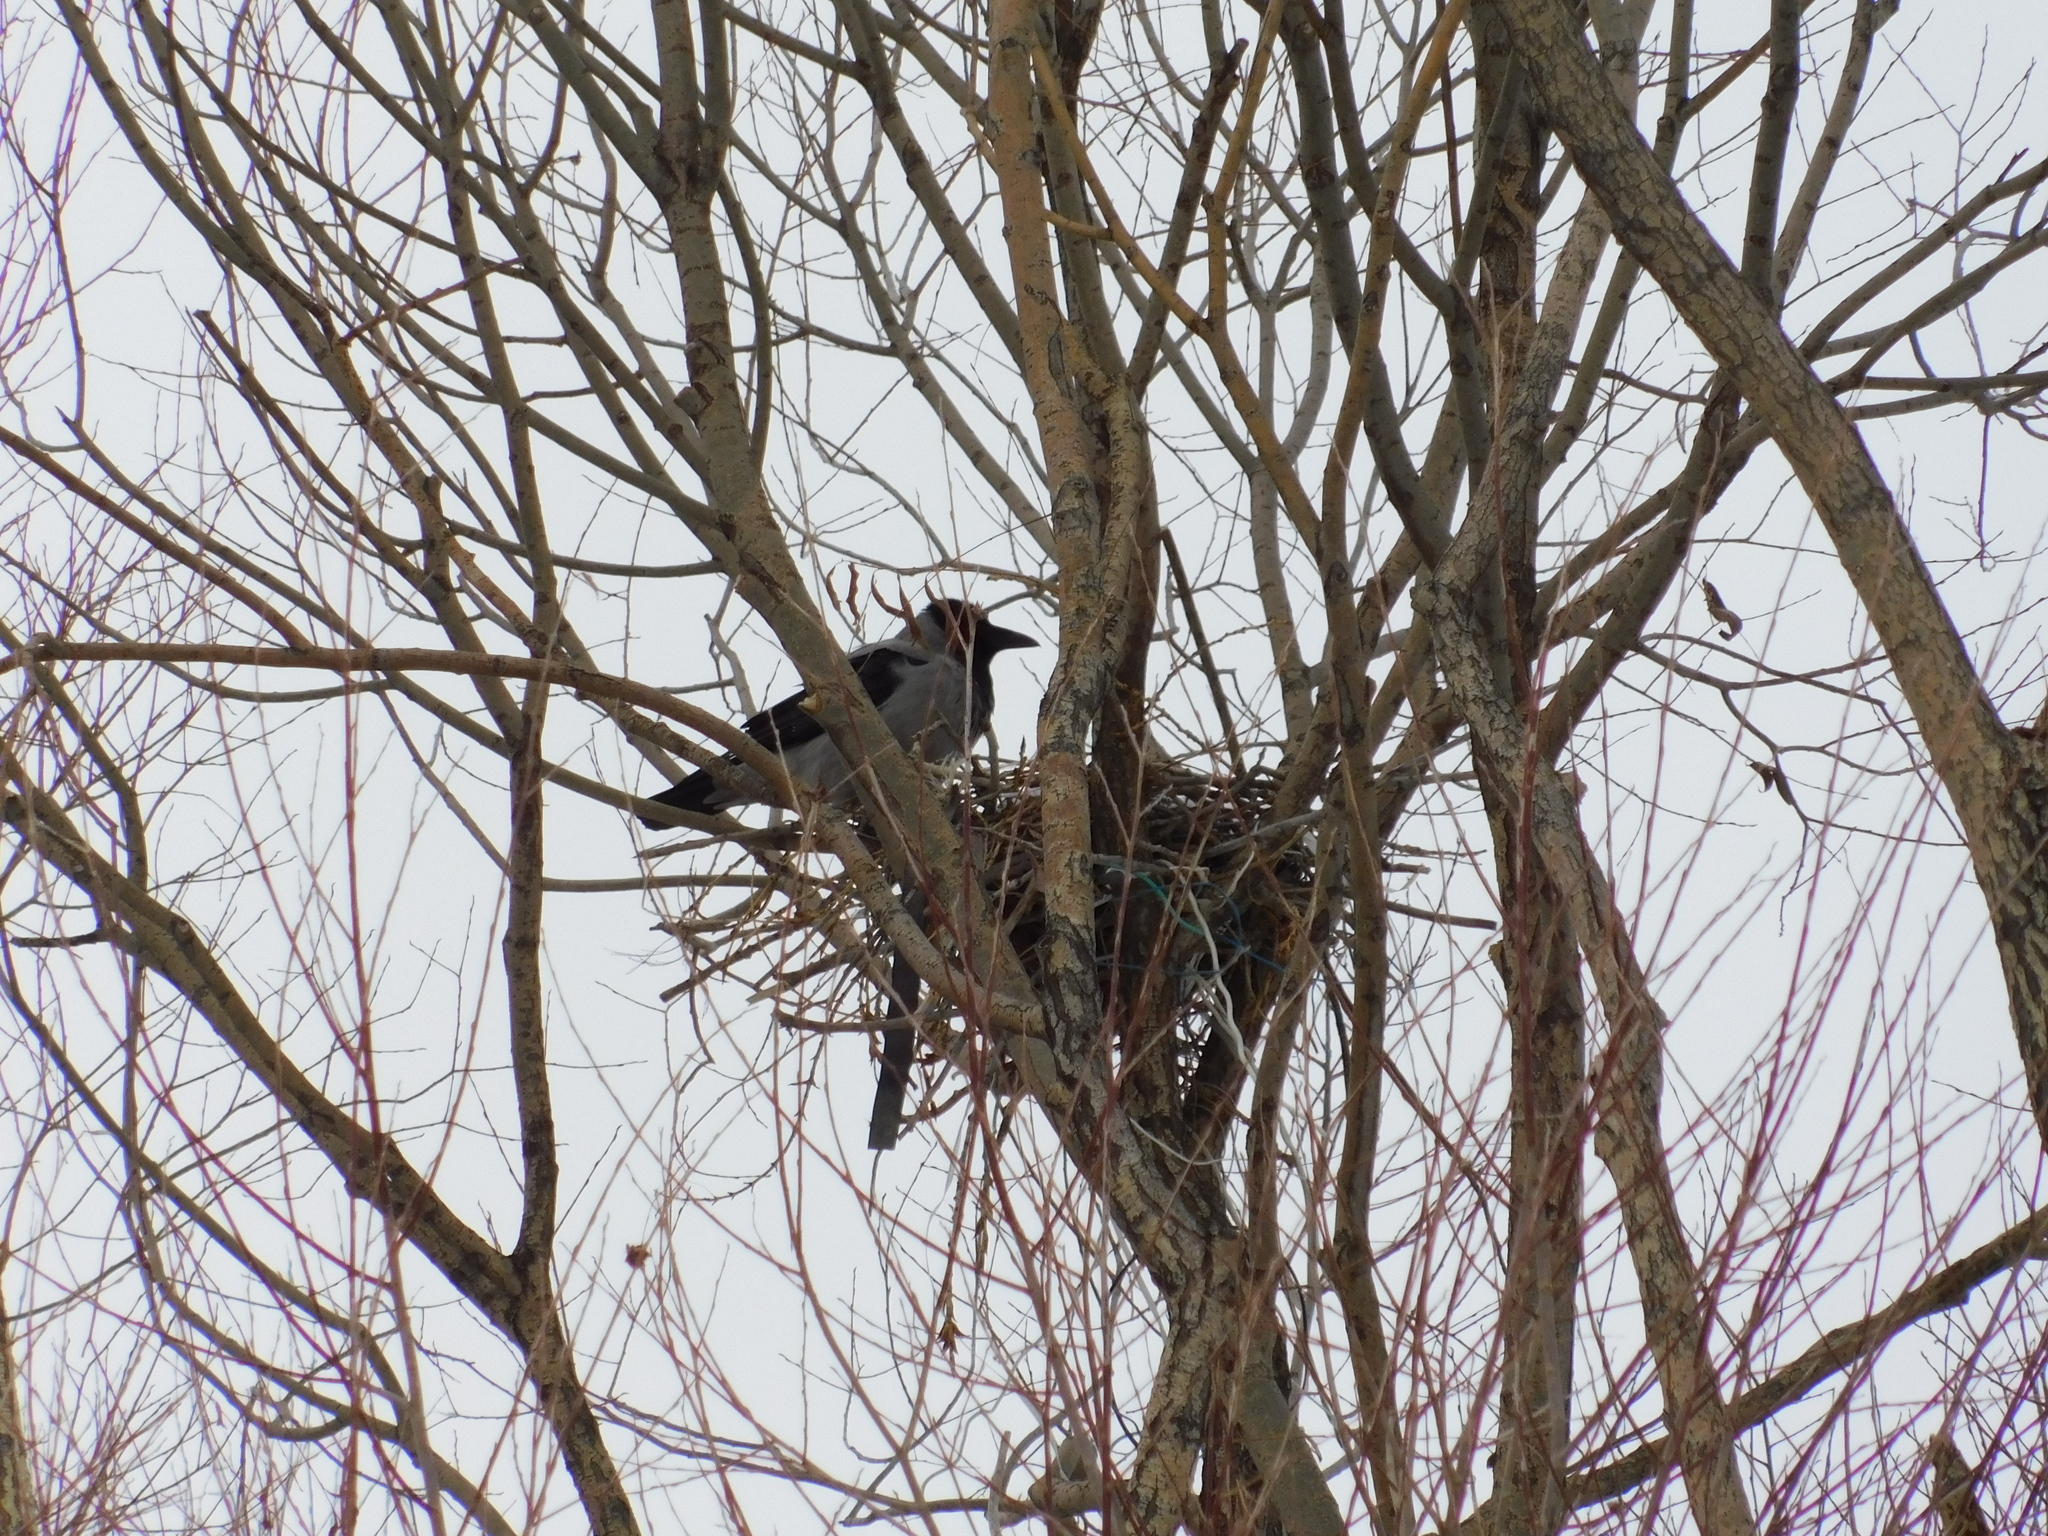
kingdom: Animalia
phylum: Chordata
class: Aves
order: Passeriformes
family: Corvidae
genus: Corvus
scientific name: Corvus cornix
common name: Hooded crow
